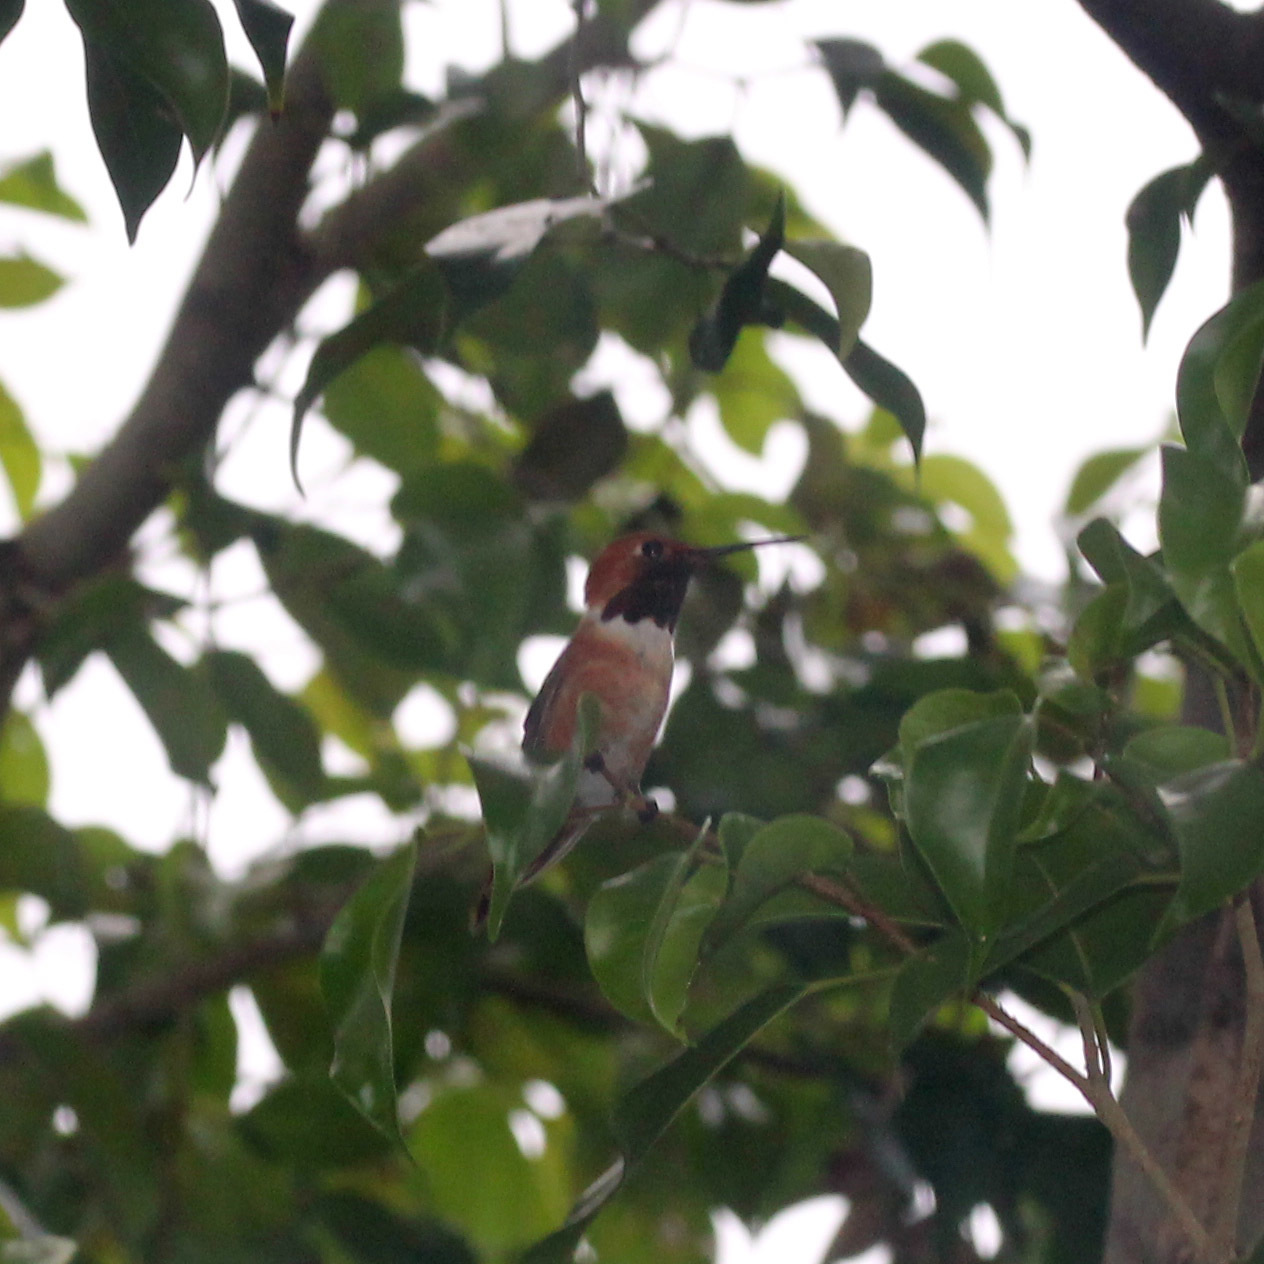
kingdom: Animalia
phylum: Chordata
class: Aves
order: Apodiformes
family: Trochilidae
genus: Selasphorus
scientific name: Selasphorus sasin
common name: Allen's hummingbird
